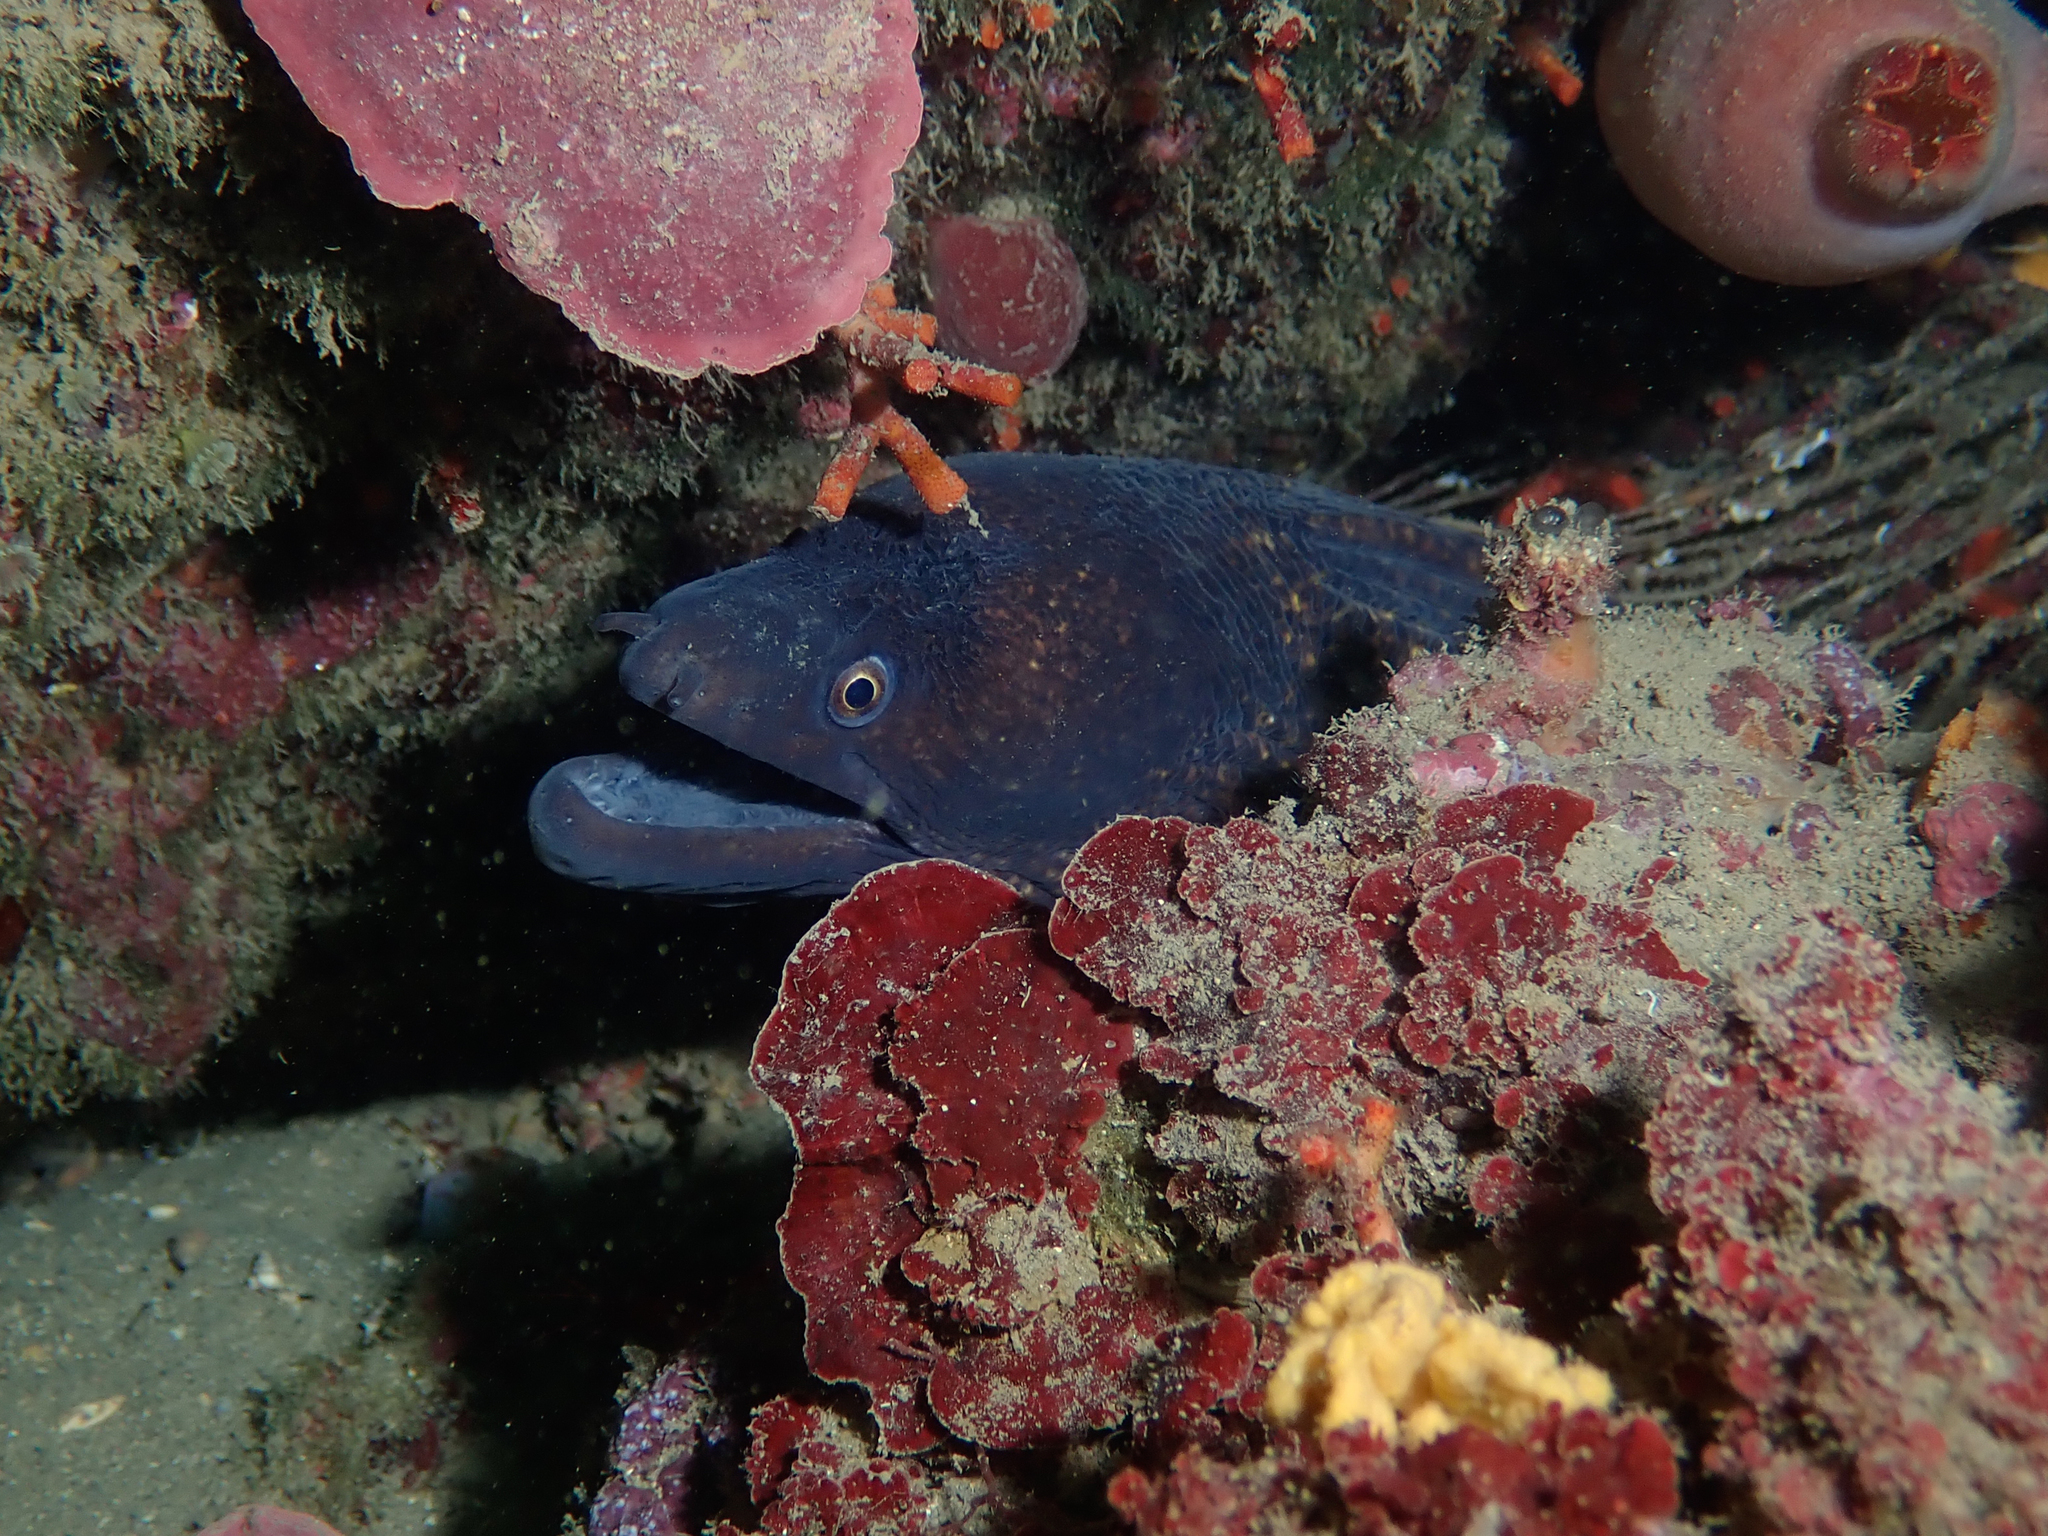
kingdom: Animalia
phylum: Chordata
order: Anguilliformes
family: Muraenidae
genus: Muraena
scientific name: Muraena helena
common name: Mediterranean moray
